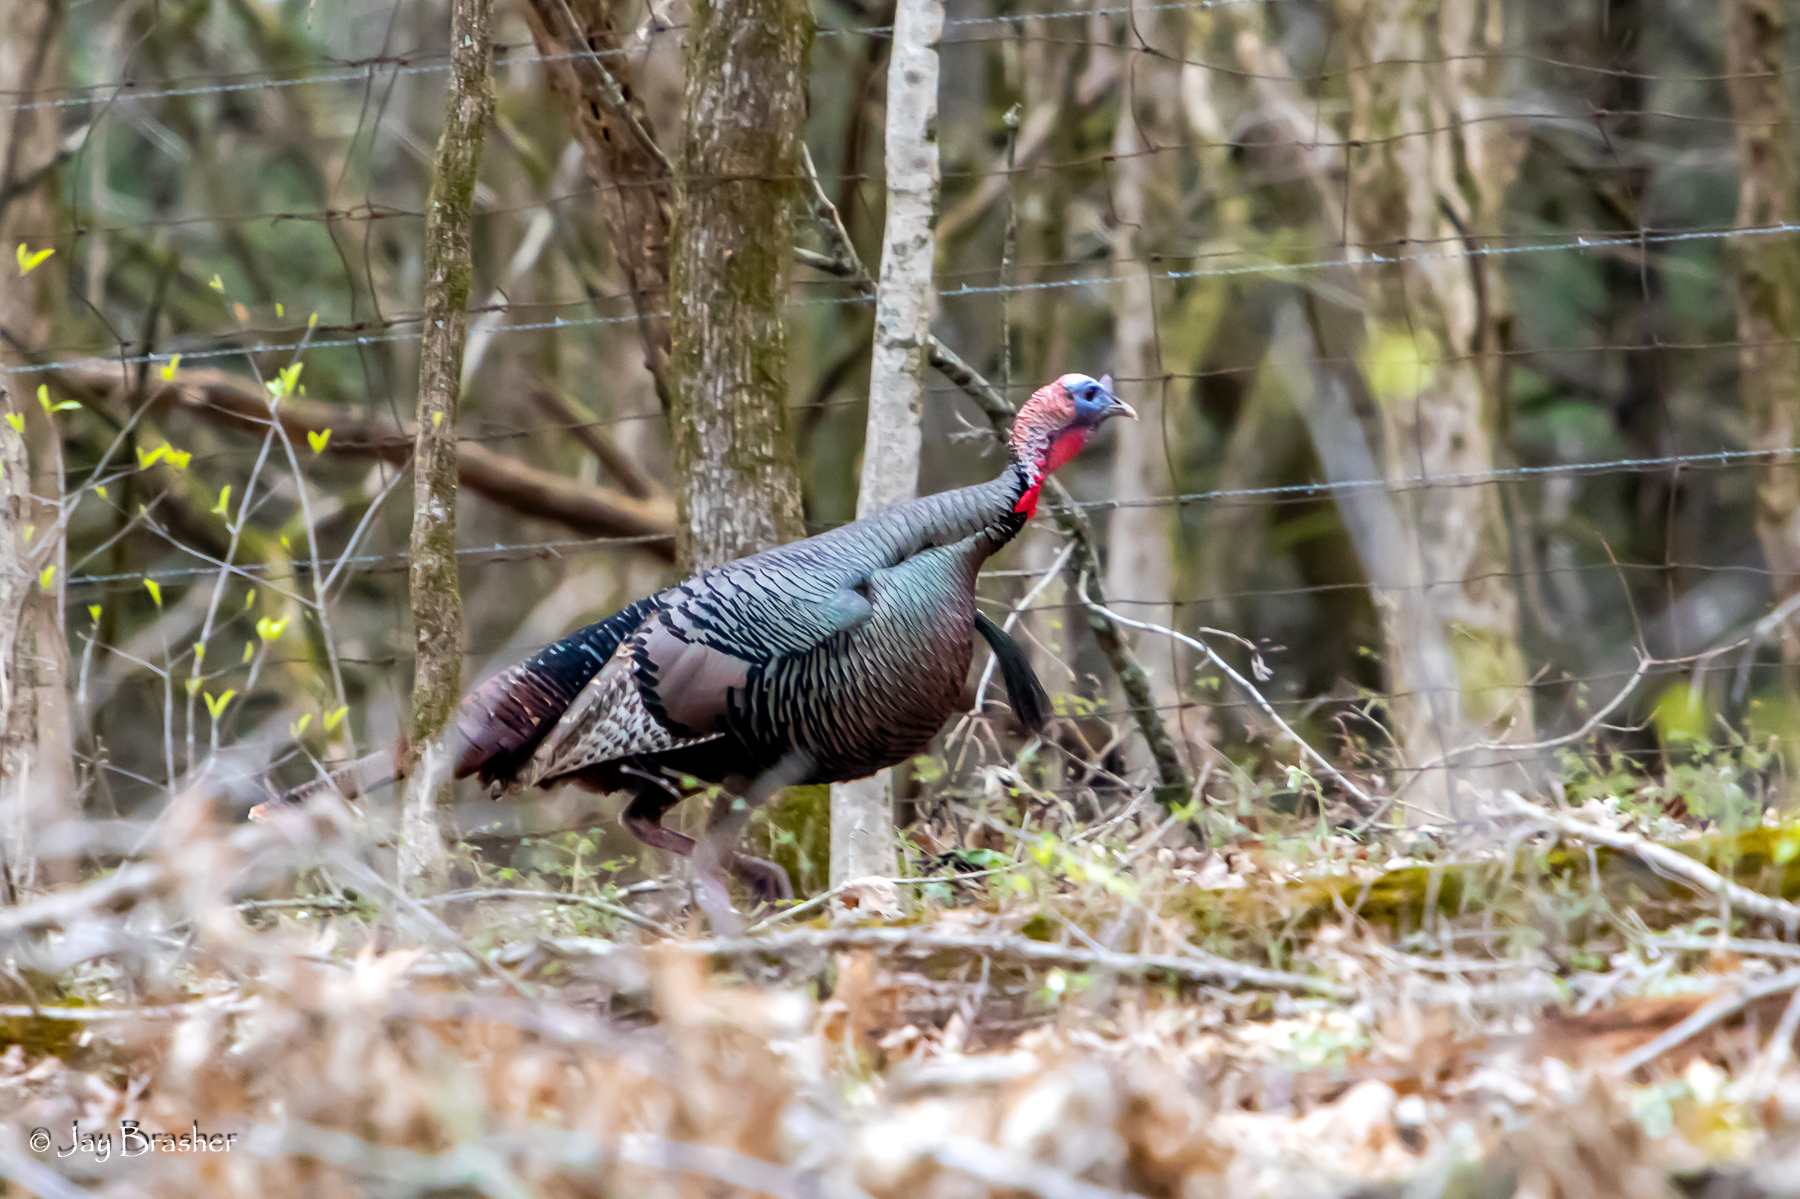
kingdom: Animalia
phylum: Chordata
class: Aves
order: Galliformes
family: Phasianidae
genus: Meleagris
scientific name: Meleagris gallopavo
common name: Wild turkey
